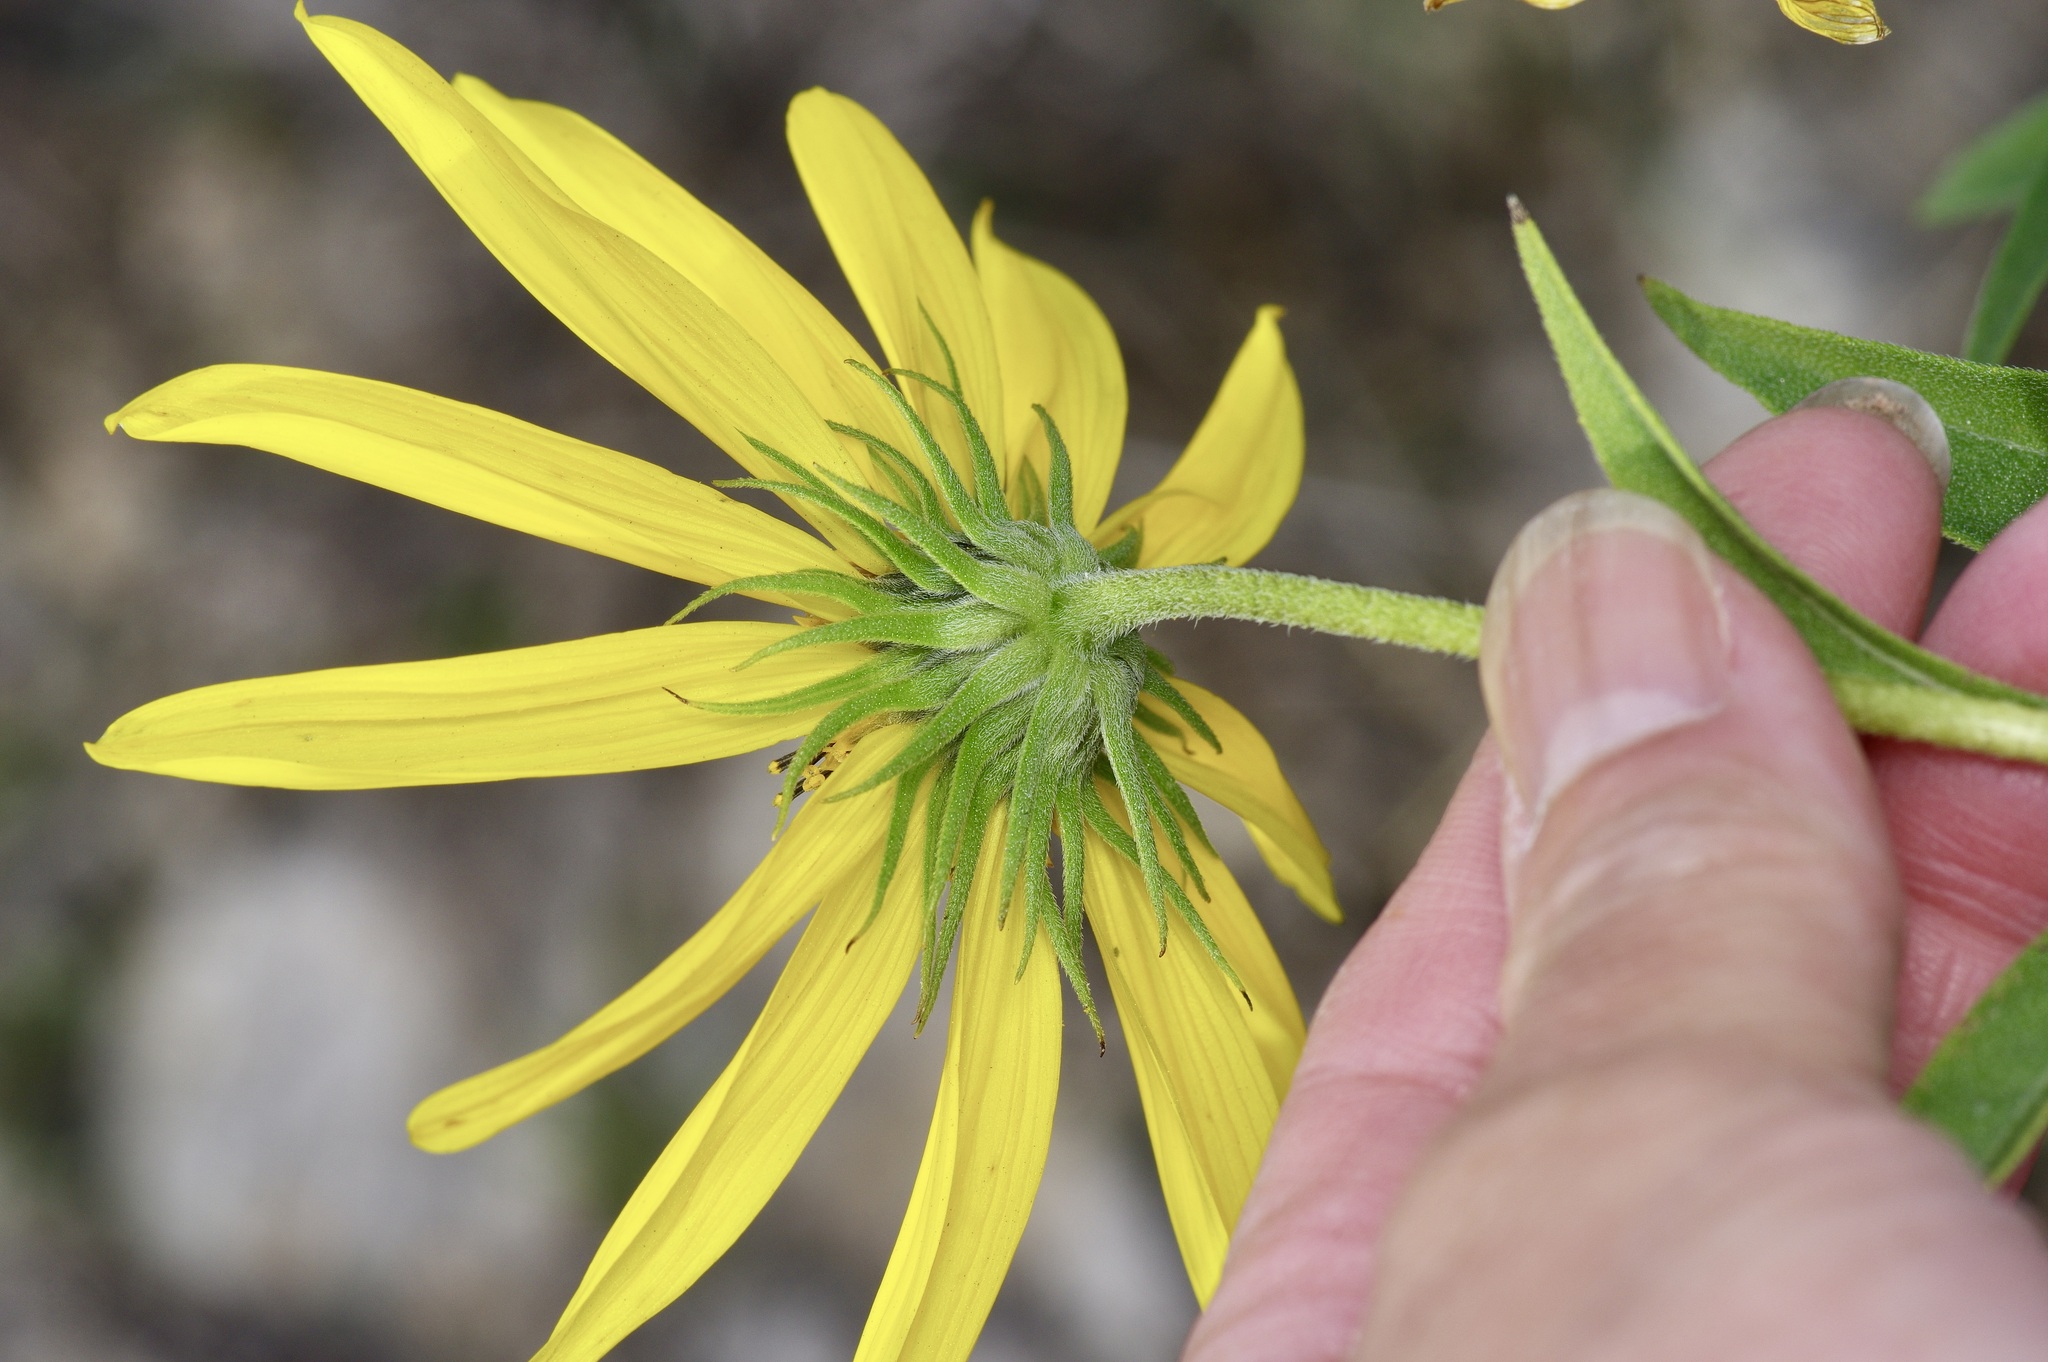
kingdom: Plantae
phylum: Tracheophyta
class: Magnoliopsida
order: Asterales
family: Asteraceae
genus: Helianthus
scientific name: Helianthus maximiliani
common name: Maximilian's sunflower
